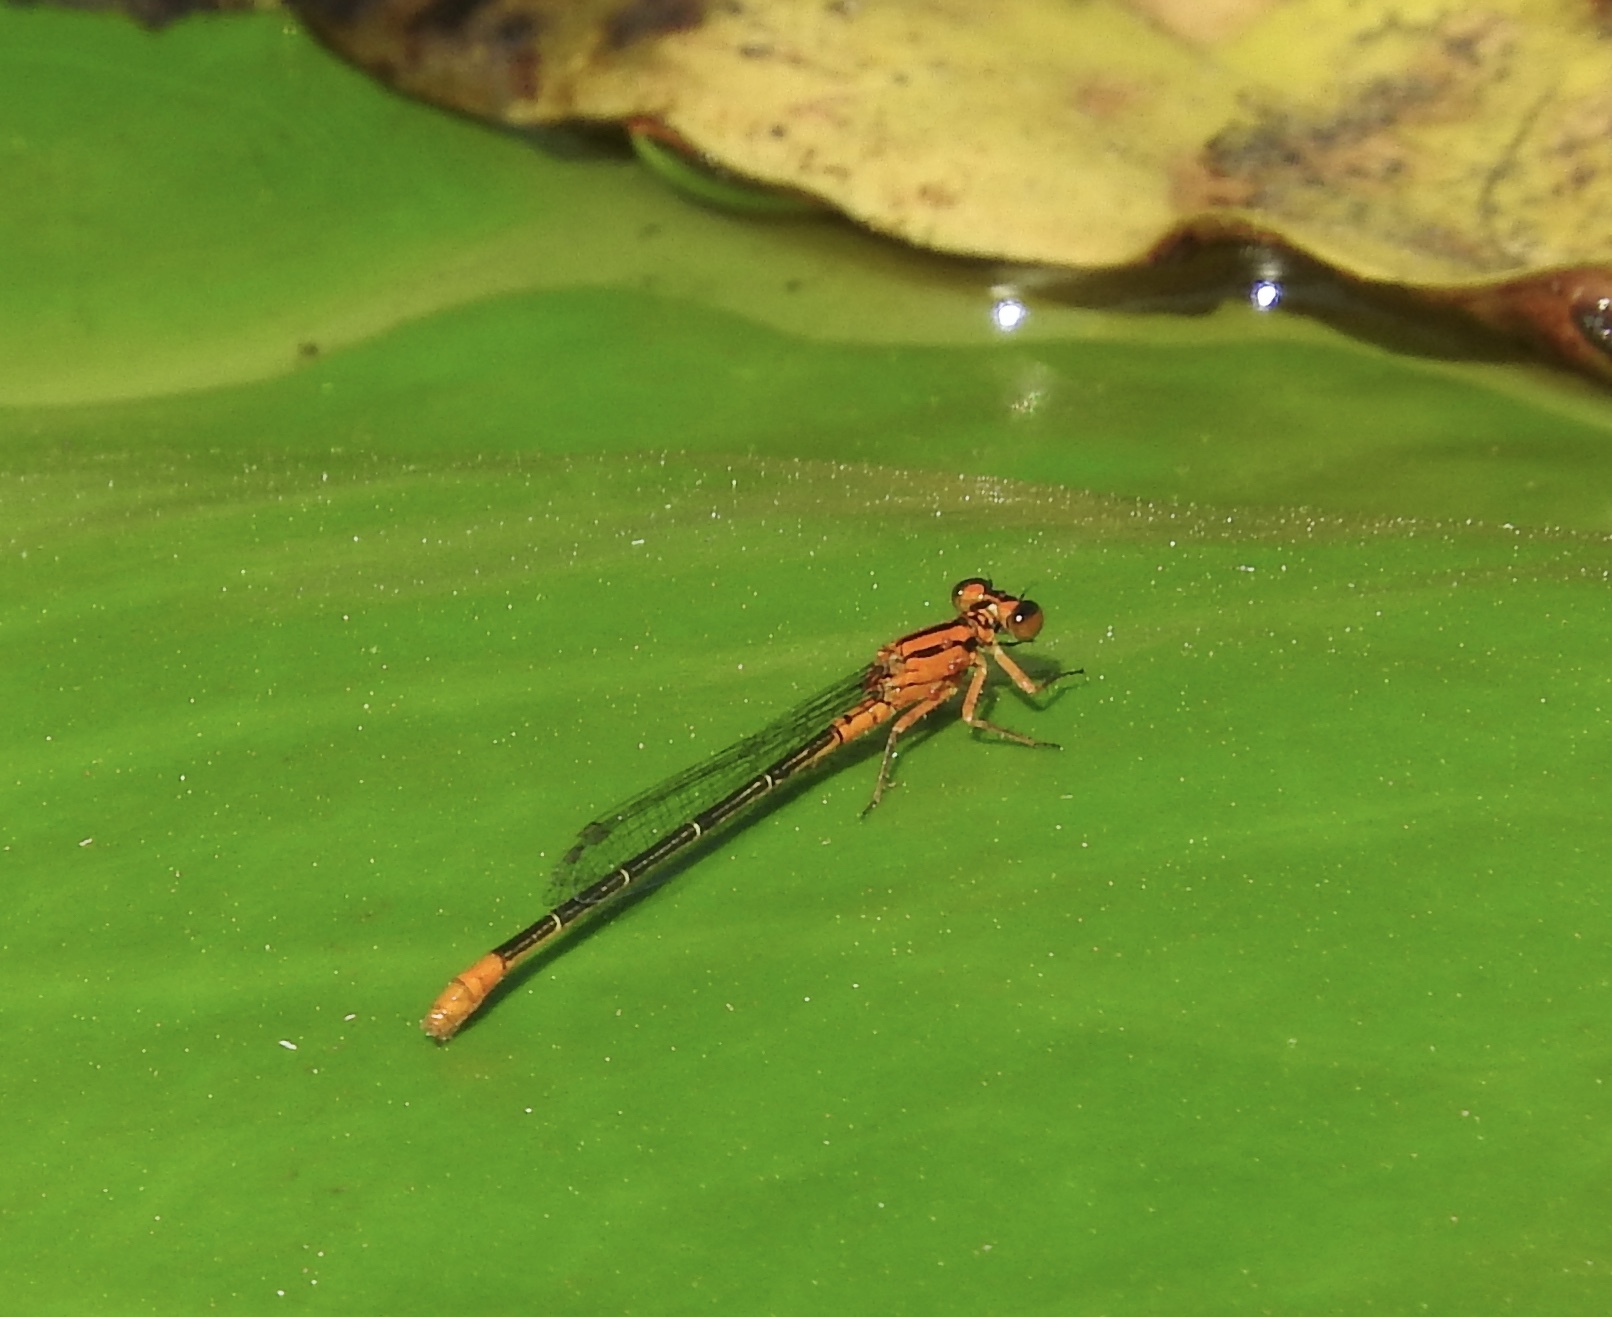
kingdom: Animalia
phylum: Arthropoda
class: Insecta
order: Odonata
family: Coenagrionidae
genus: Ischnura
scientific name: Ischnura kellicotti
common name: Lilypad forktail
